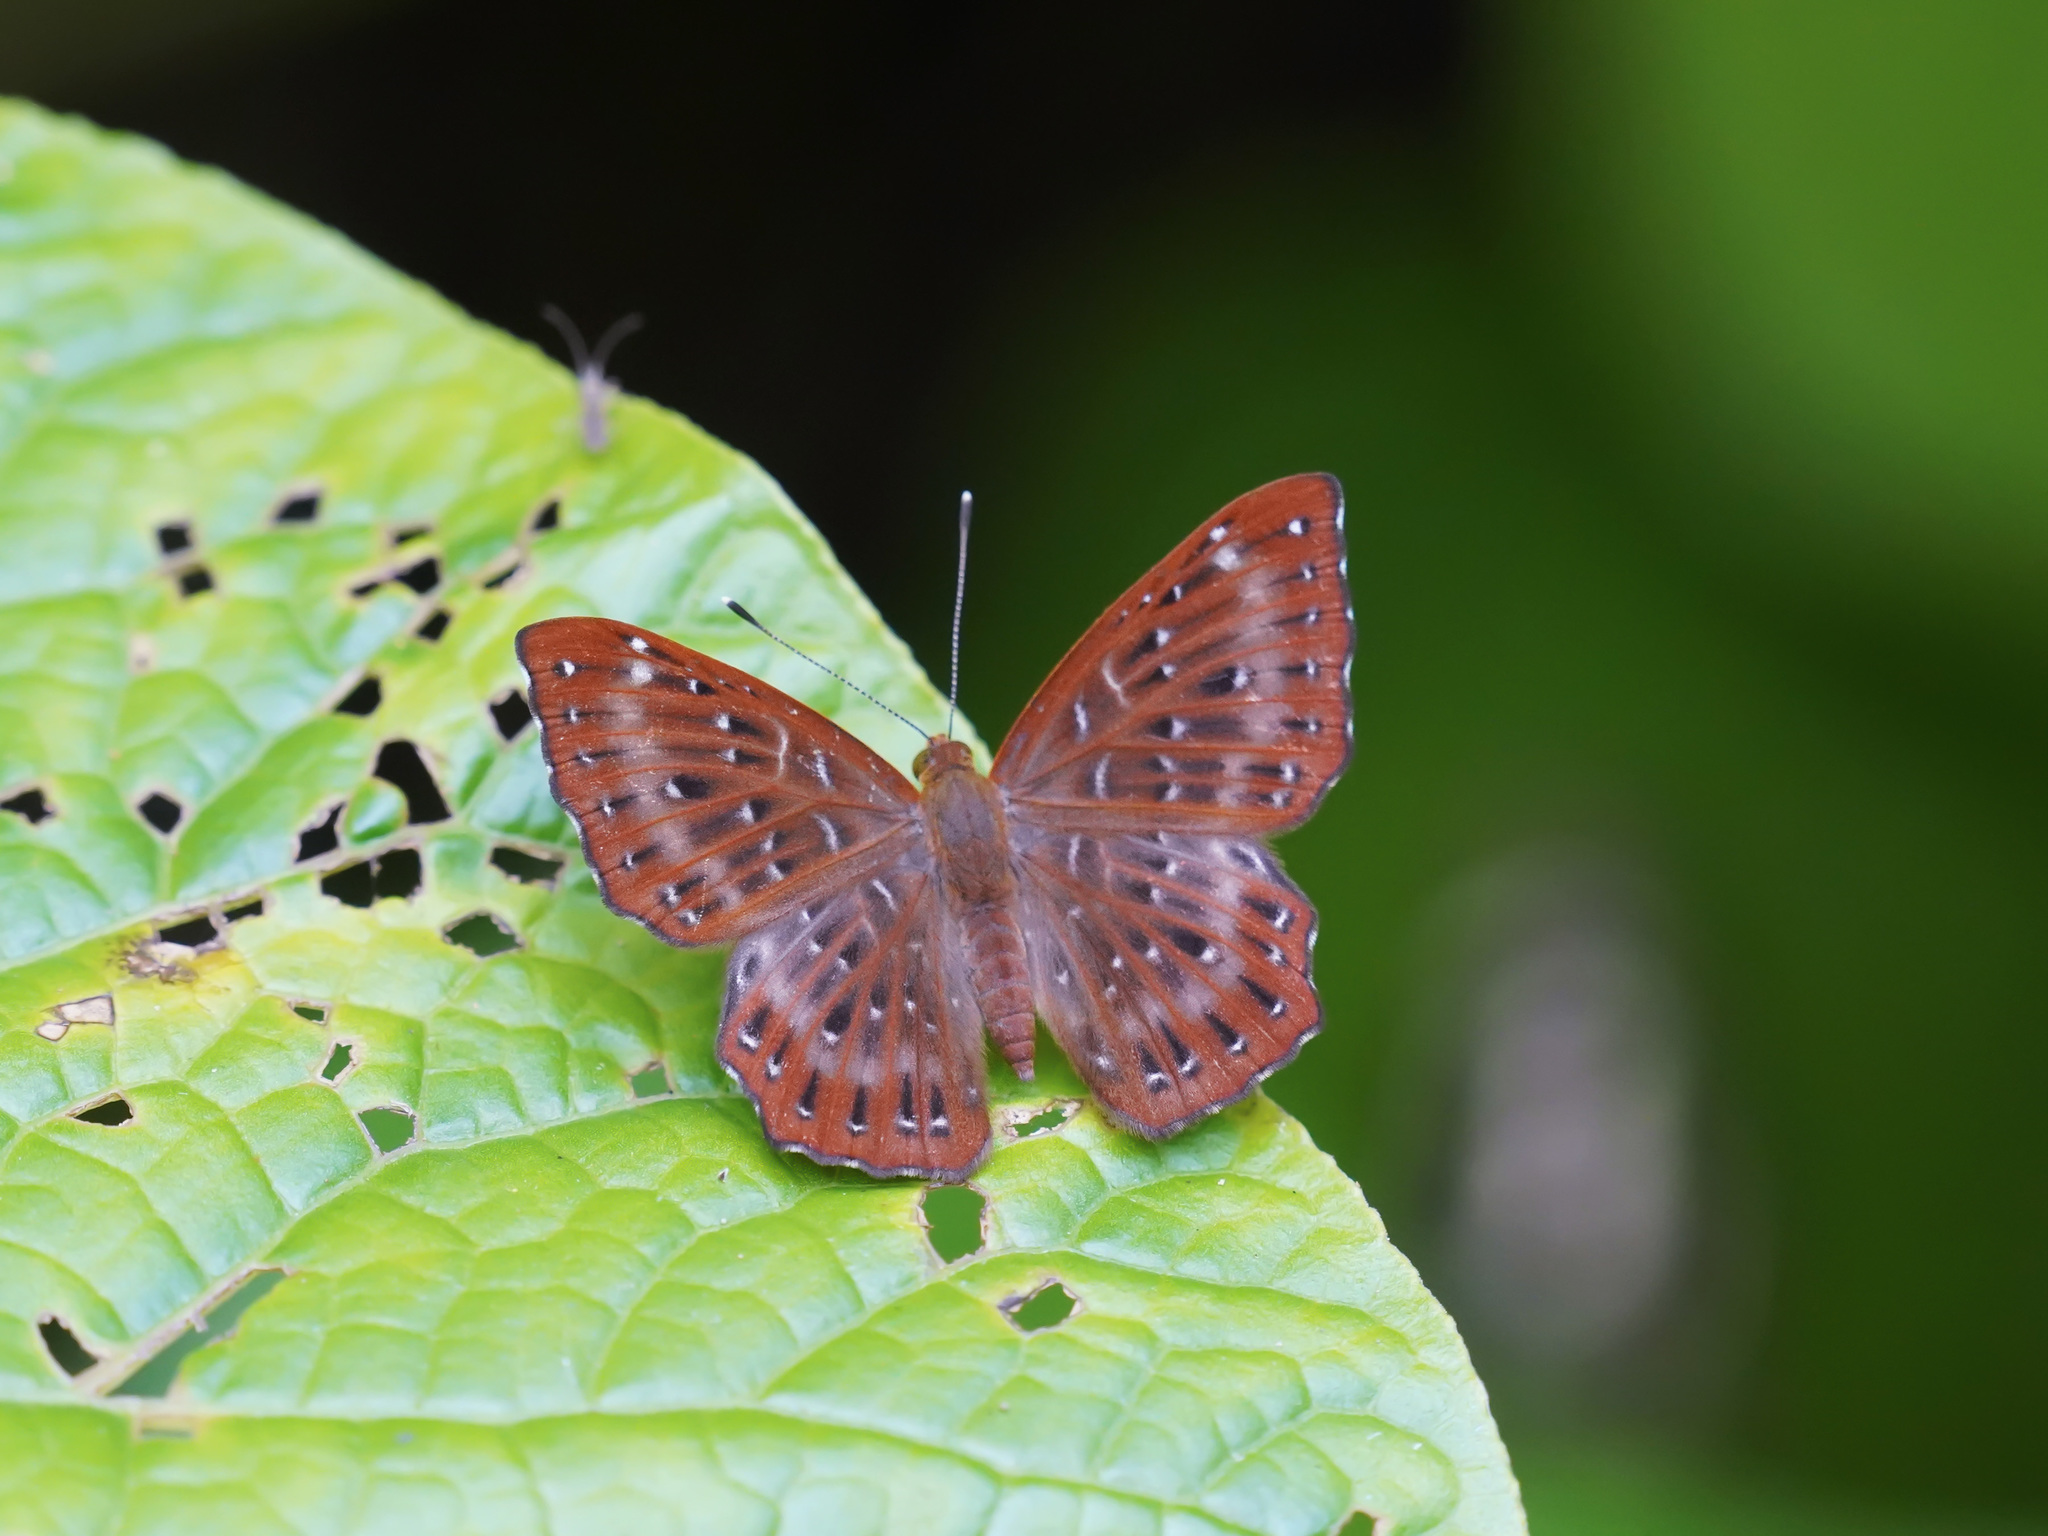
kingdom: Animalia
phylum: Arthropoda
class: Insecta
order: Lepidoptera
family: Riodinidae
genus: Zemeros
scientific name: Zemeros flegyas
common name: Punchinello
